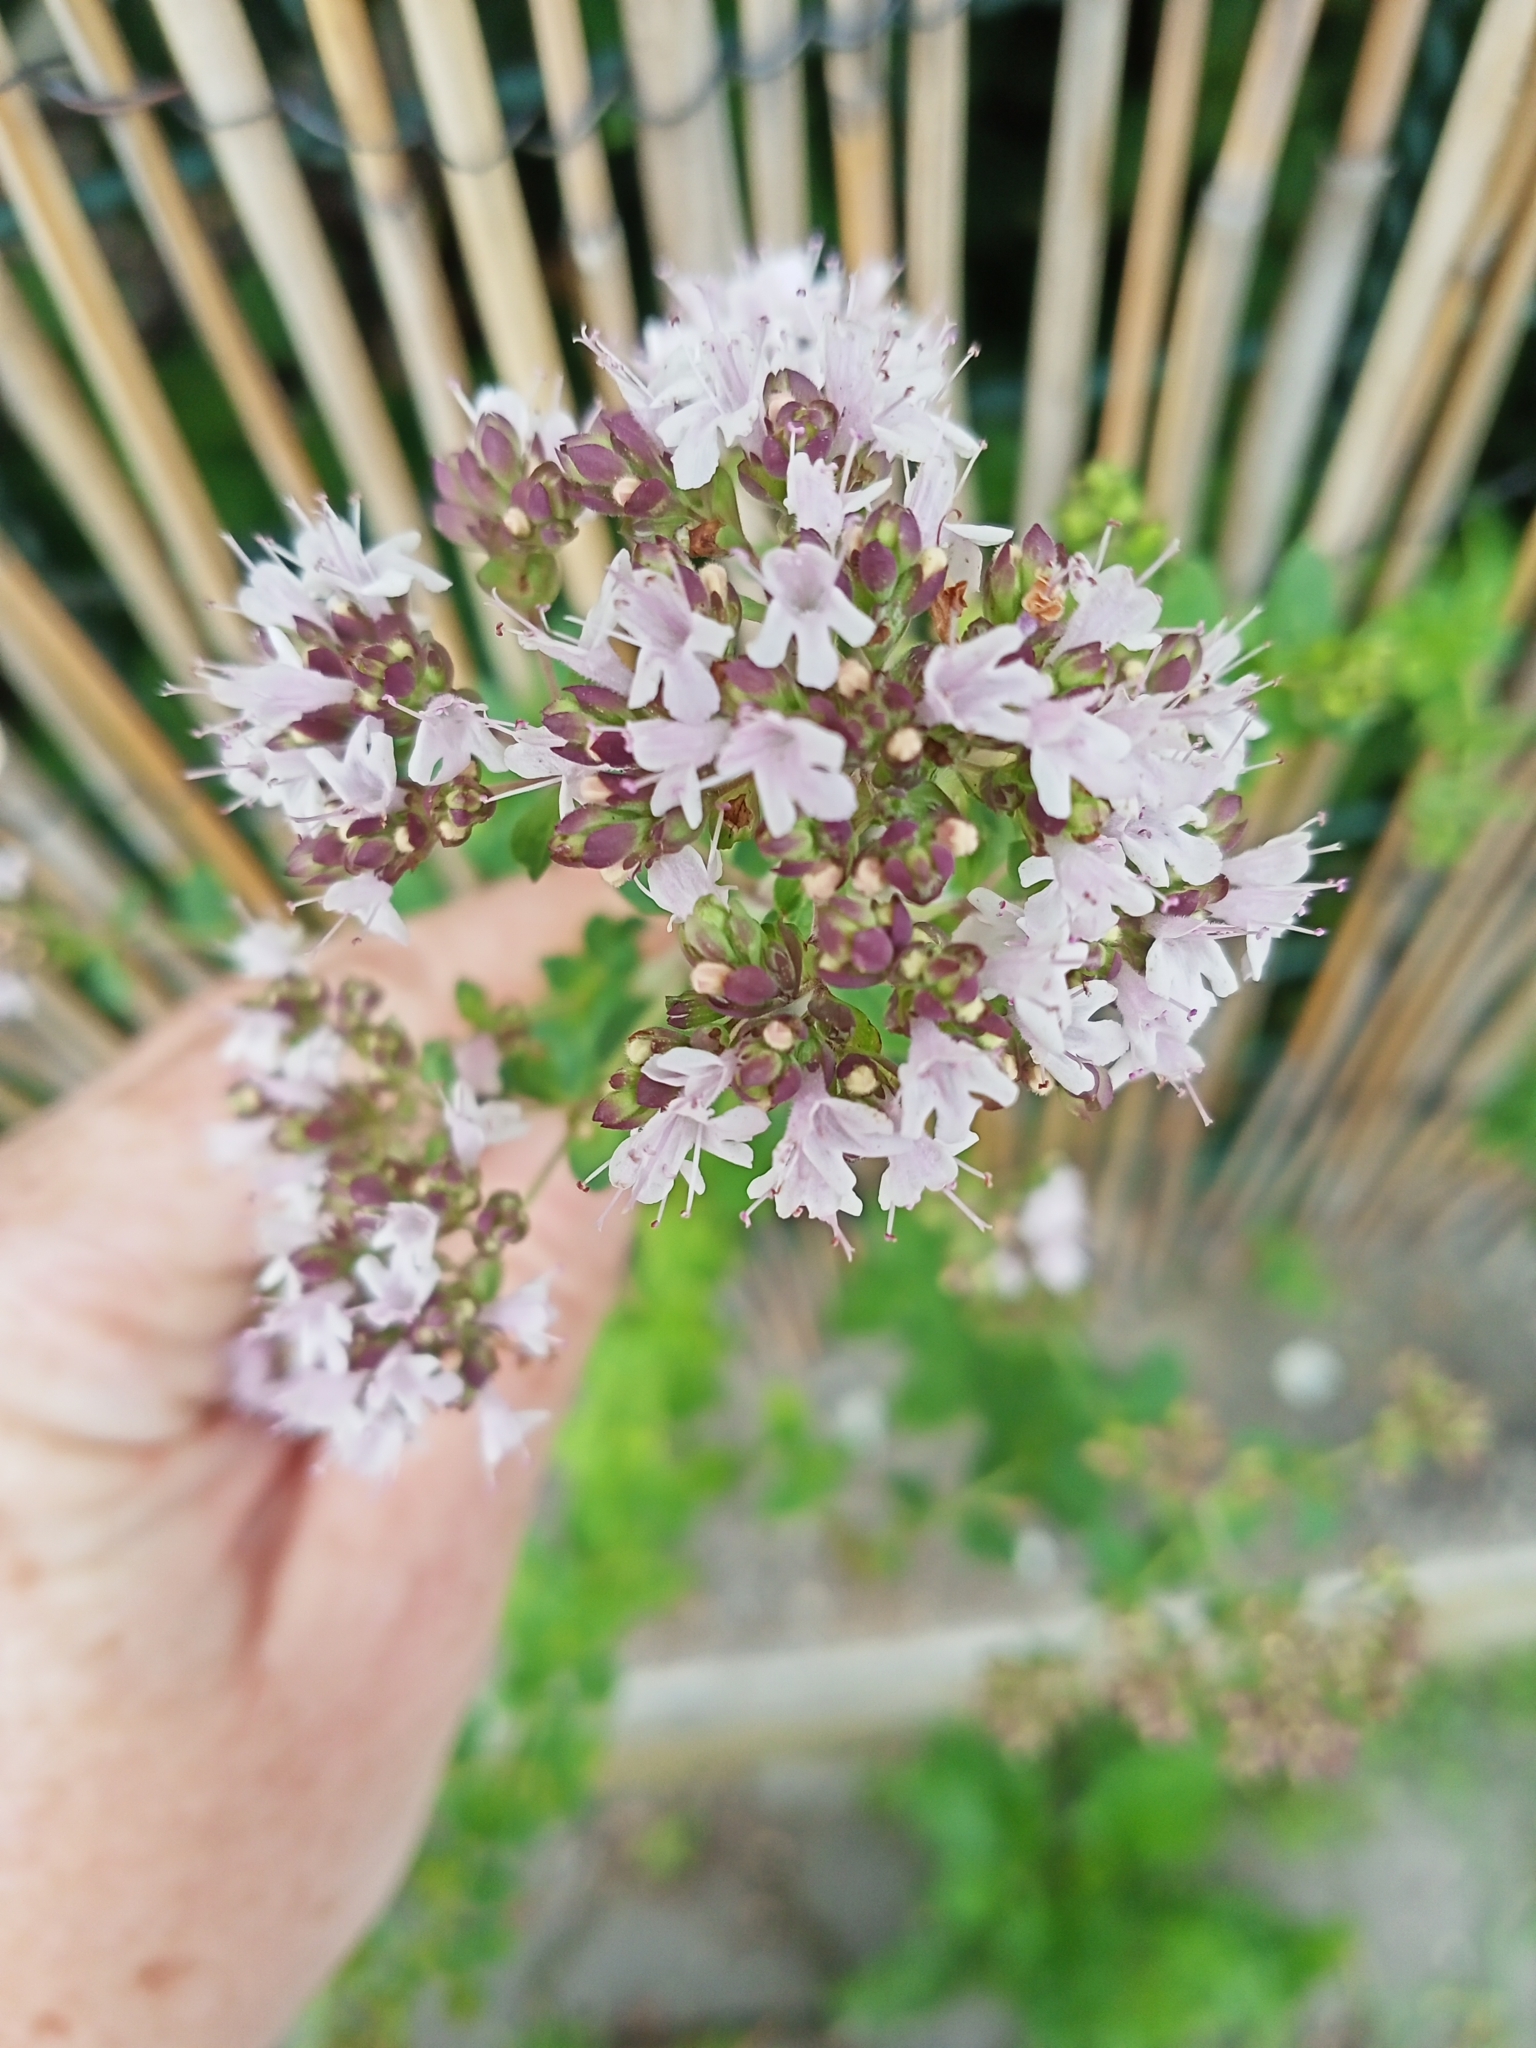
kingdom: Plantae
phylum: Tracheophyta
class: Magnoliopsida
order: Lamiales
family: Lamiaceae
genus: Origanum
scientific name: Origanum vulgare
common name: Wild marjoram
